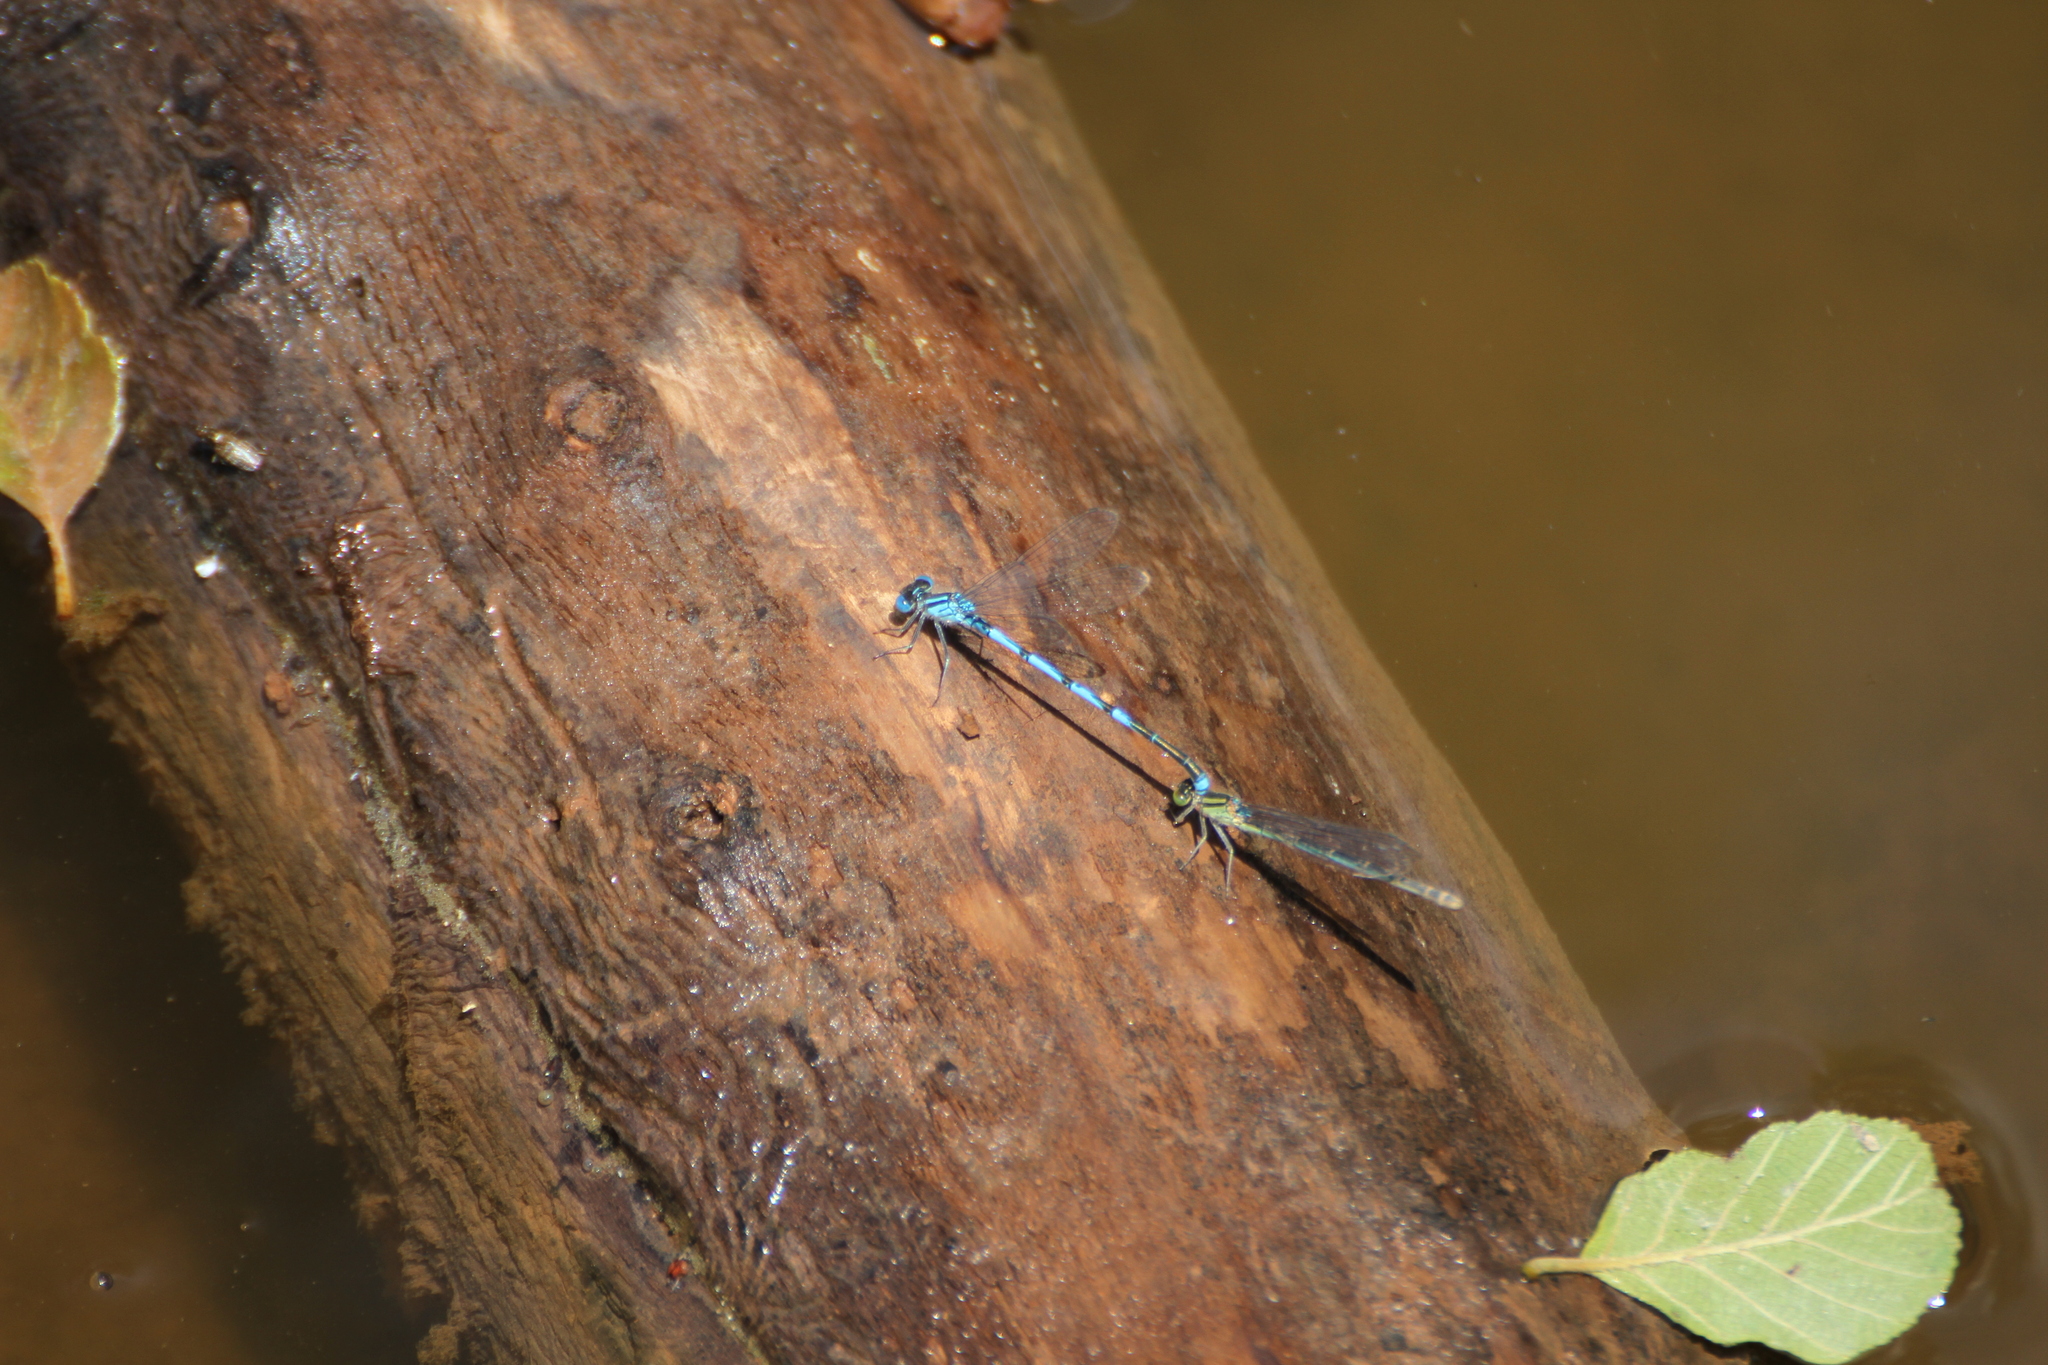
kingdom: Animalia
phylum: Arthropoda
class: Insecta
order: Odonata
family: Coenagrionidae
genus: Erythromma
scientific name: Erythromma lindenii
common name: Blue-eye
